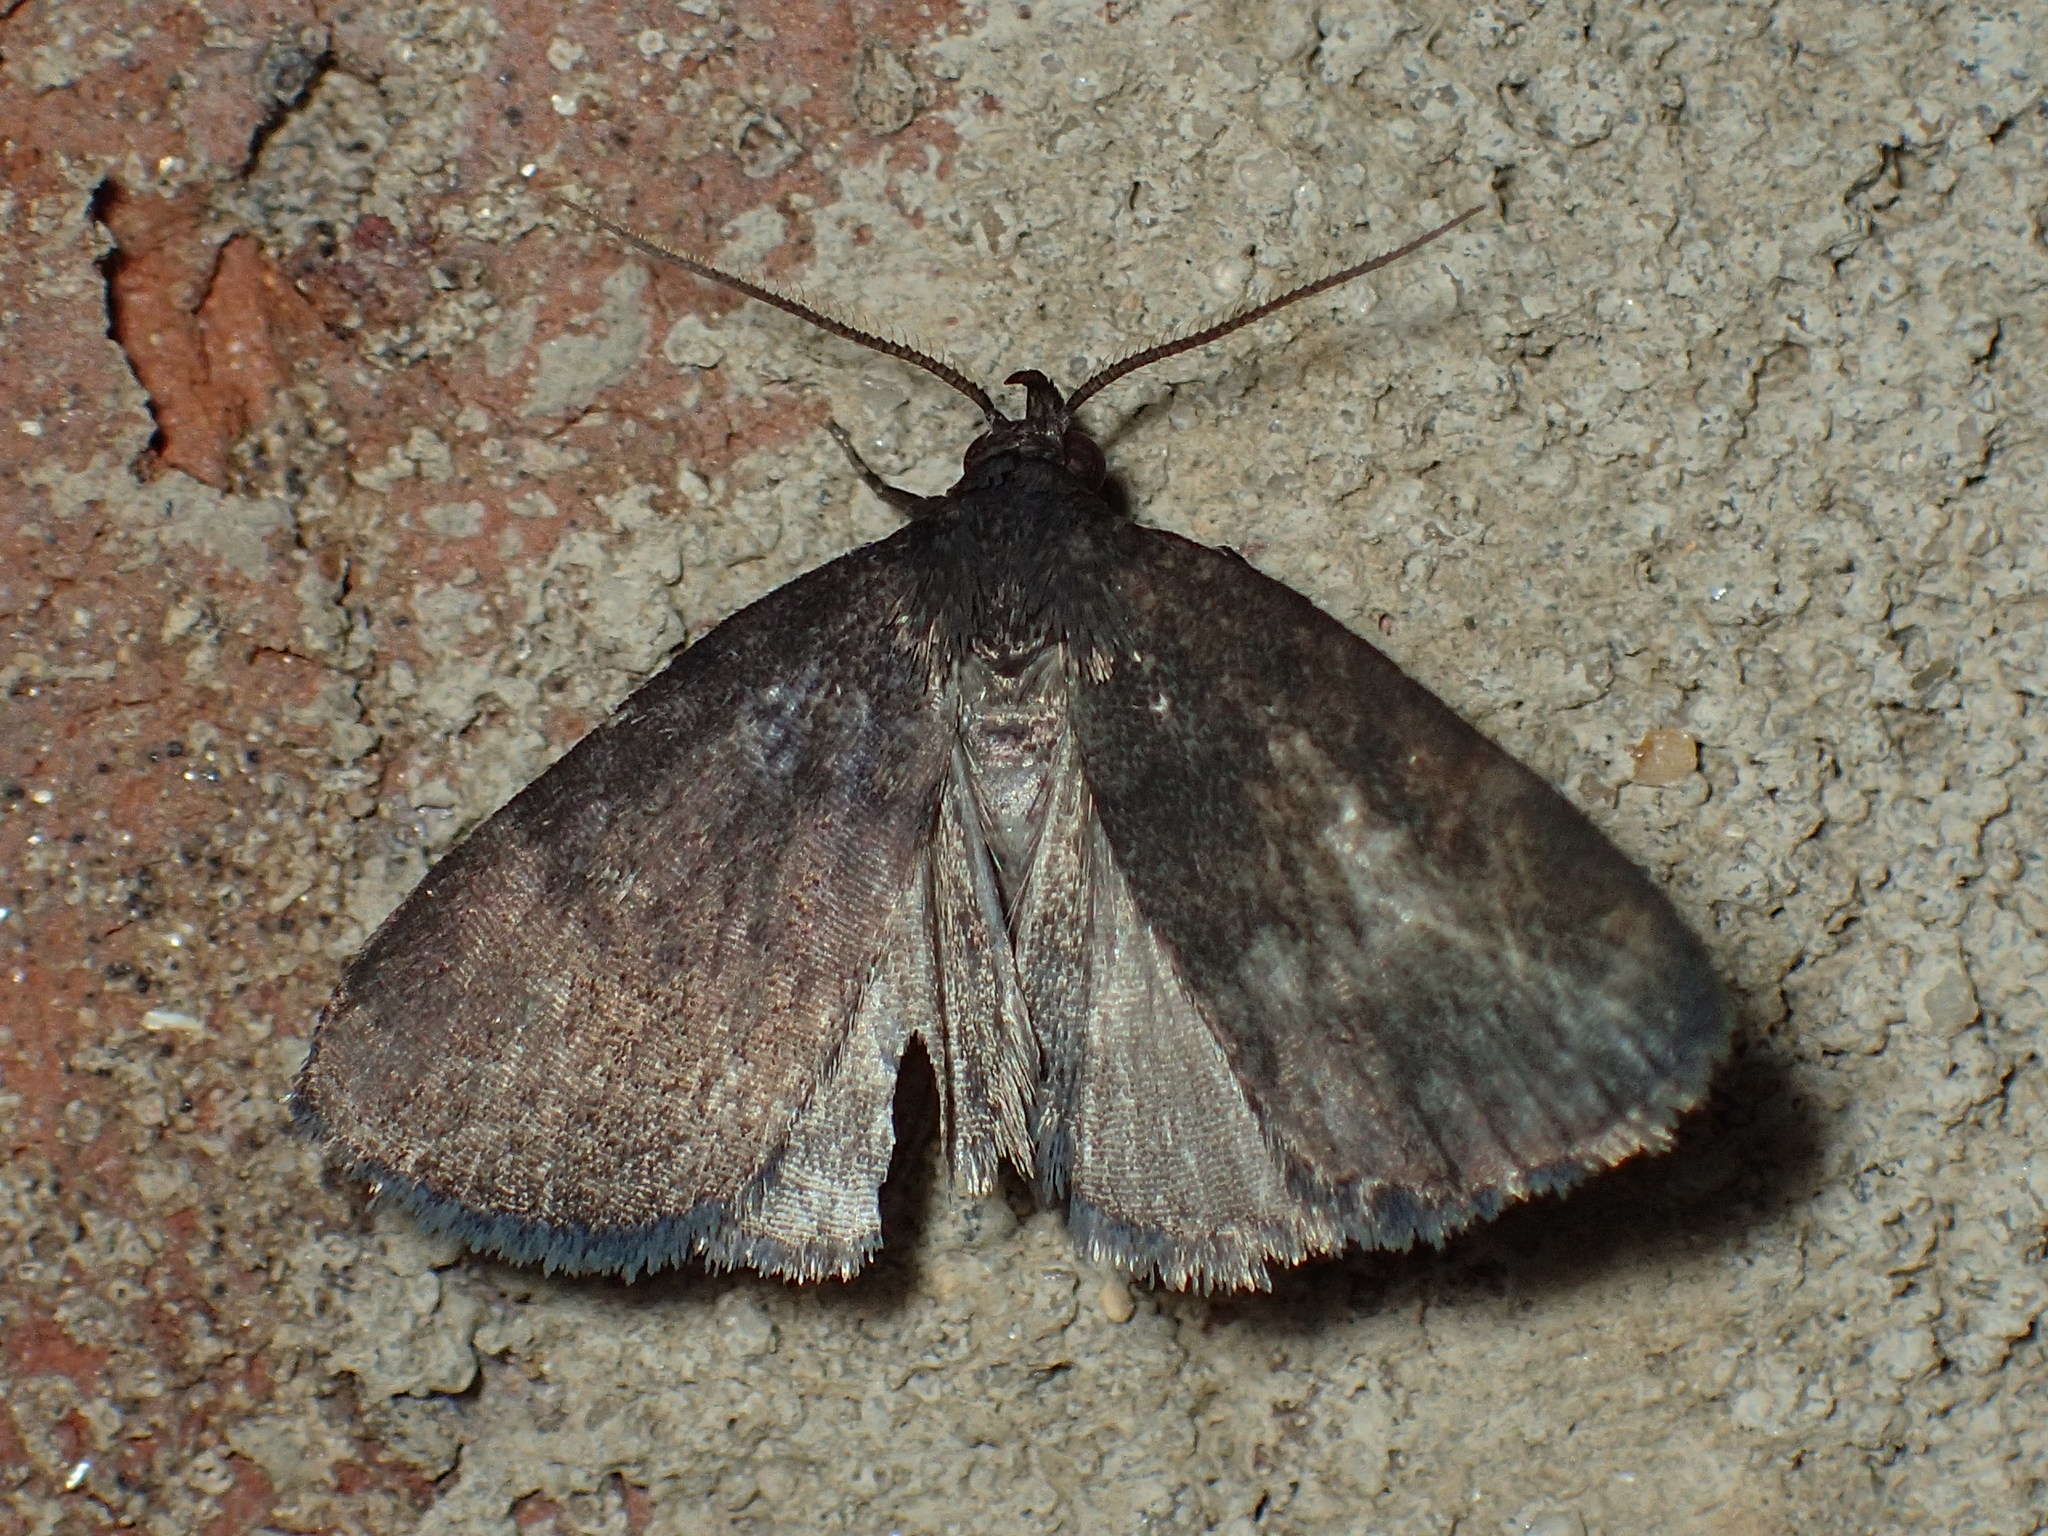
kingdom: Animalia
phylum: Arthropoda
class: Insecta
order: Lepidoptera
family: Erebidae
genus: Idia
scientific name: Idia rotundalis
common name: Rotund idia moth
